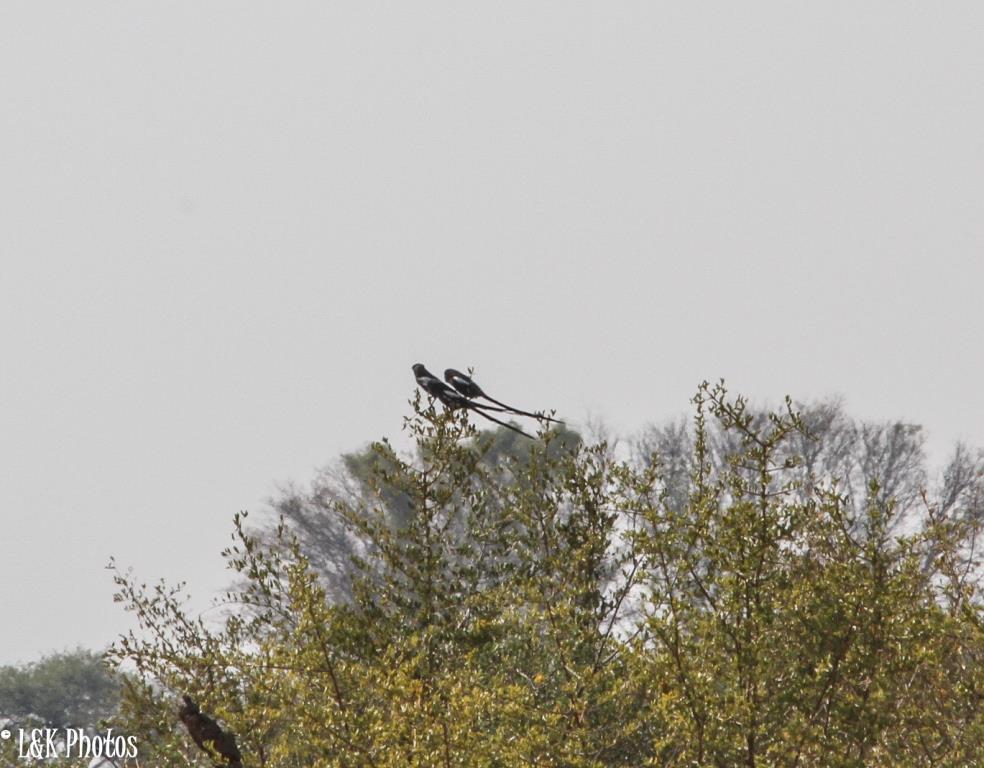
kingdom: Animalia
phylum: Chordata
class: Aves
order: Passeriformes
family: Laniidae
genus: Urolestes
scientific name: Urolestes melanoleucus
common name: Magpie shrike
